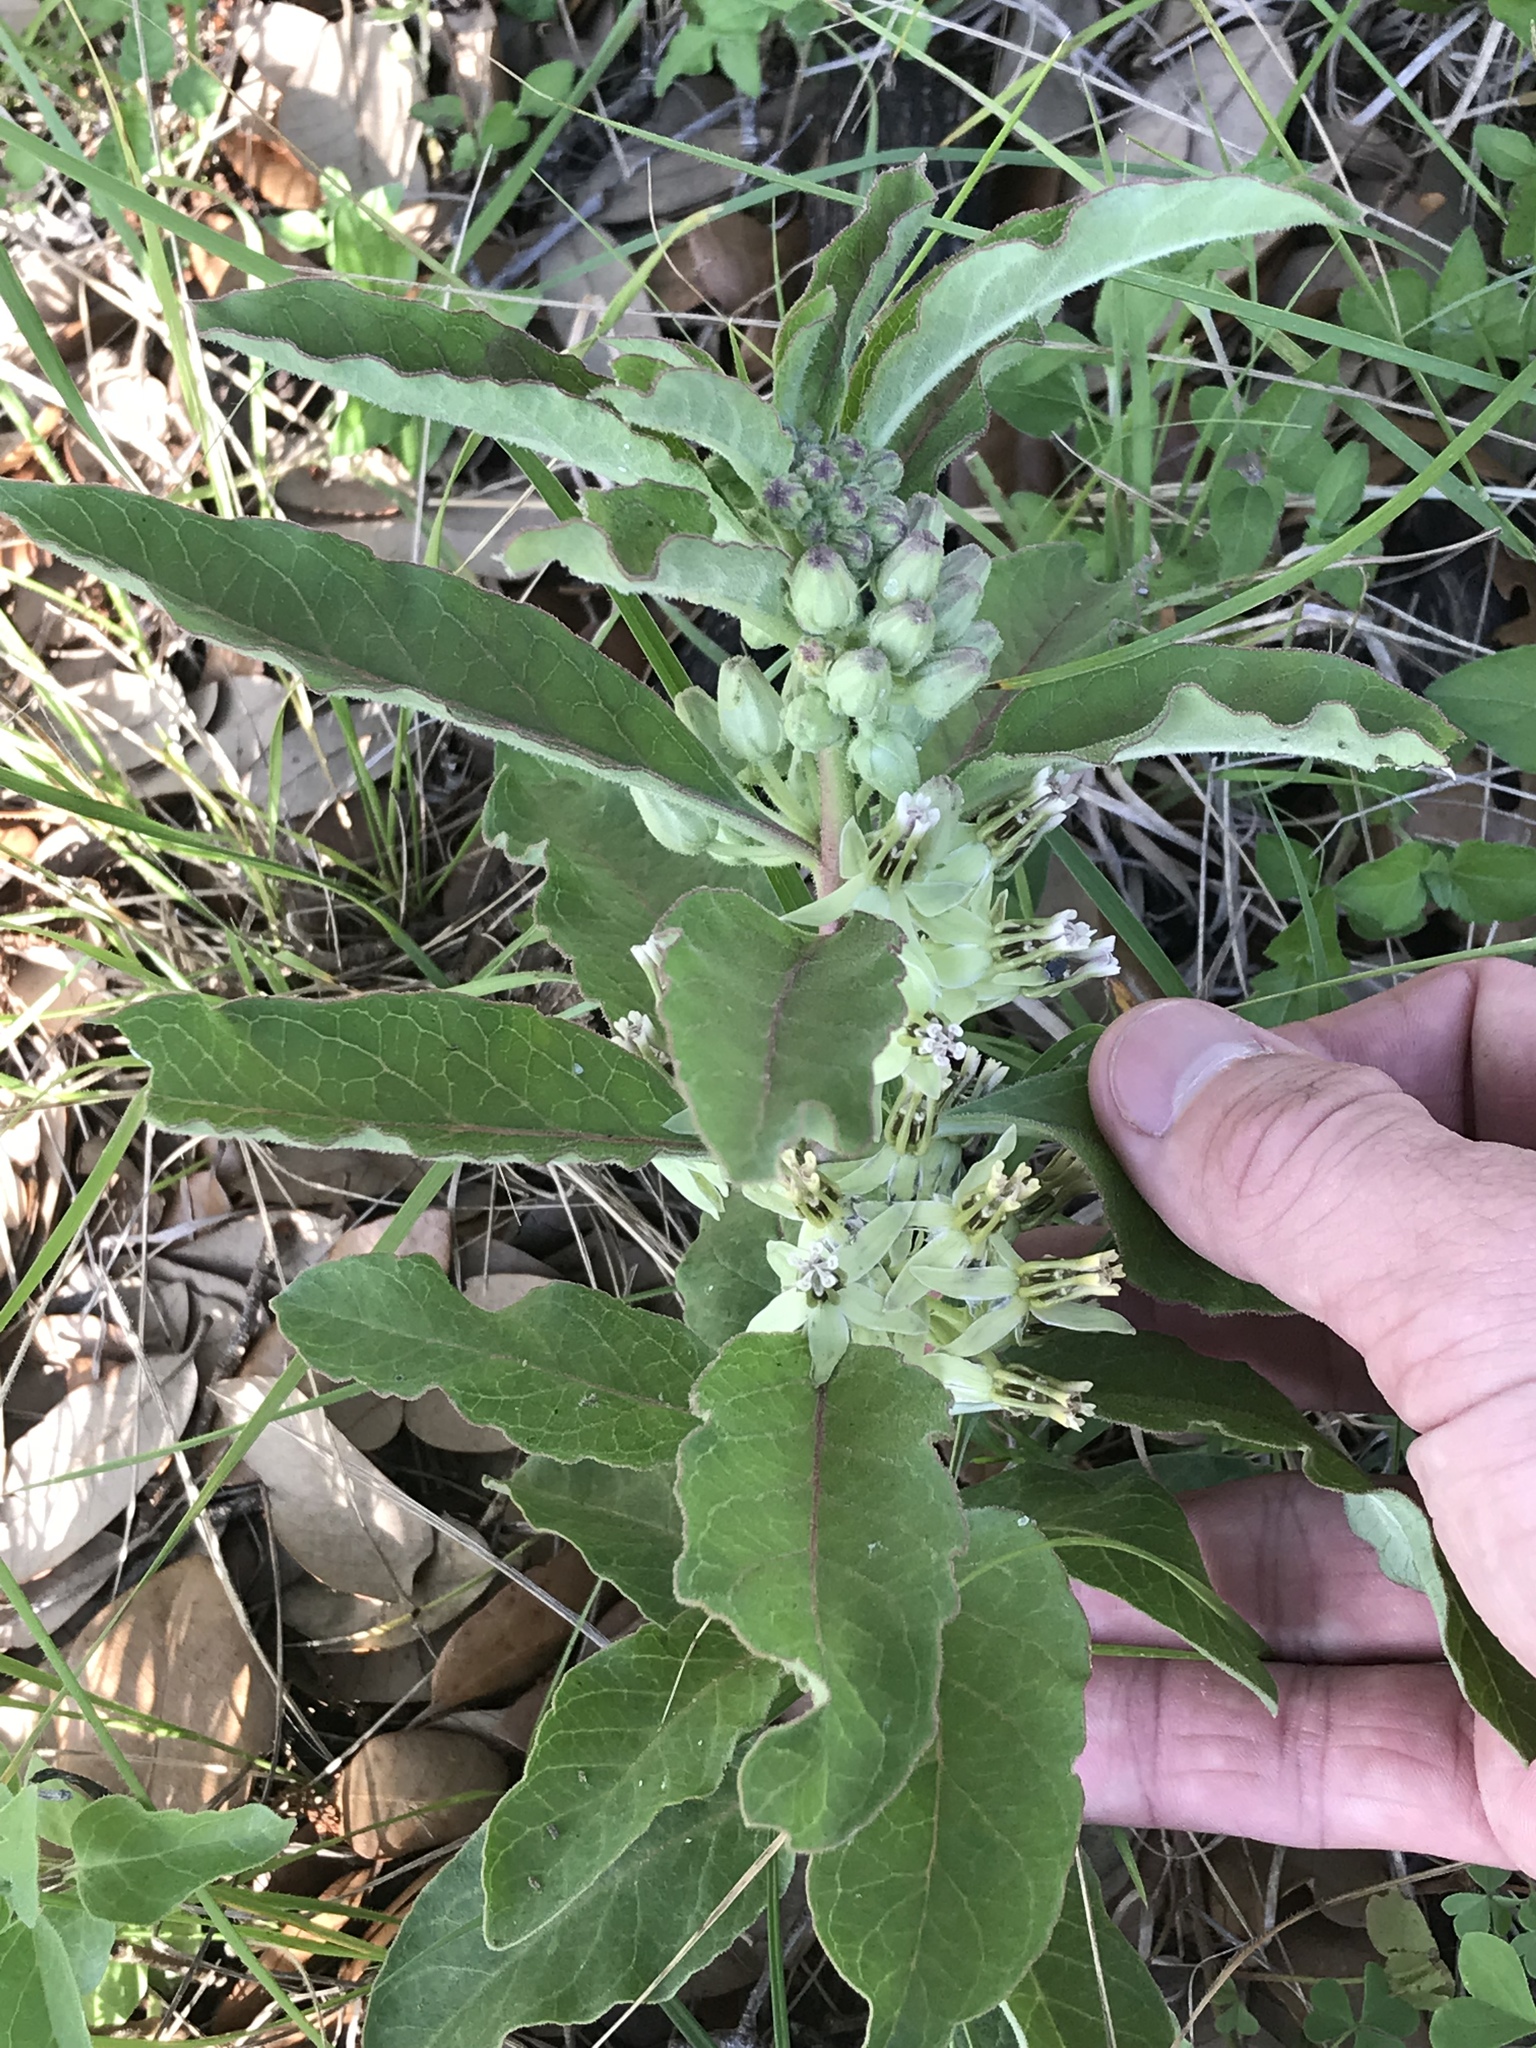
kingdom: Plantae
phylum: Tracheophyta
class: Magnoliopsida
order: Gentianales
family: Apocynaceae
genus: Asclepias
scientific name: Asclepias oenotheroides
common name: Zizotes milkweed
